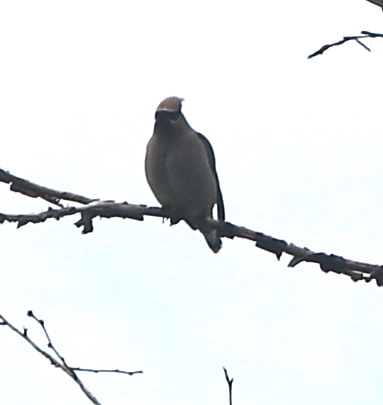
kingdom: Animalia
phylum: Chordata
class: Aves
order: Passeriformes
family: Bombycillidae
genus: Bombycilla
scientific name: Bombycilla cedrorum
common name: Cedar waxwing
